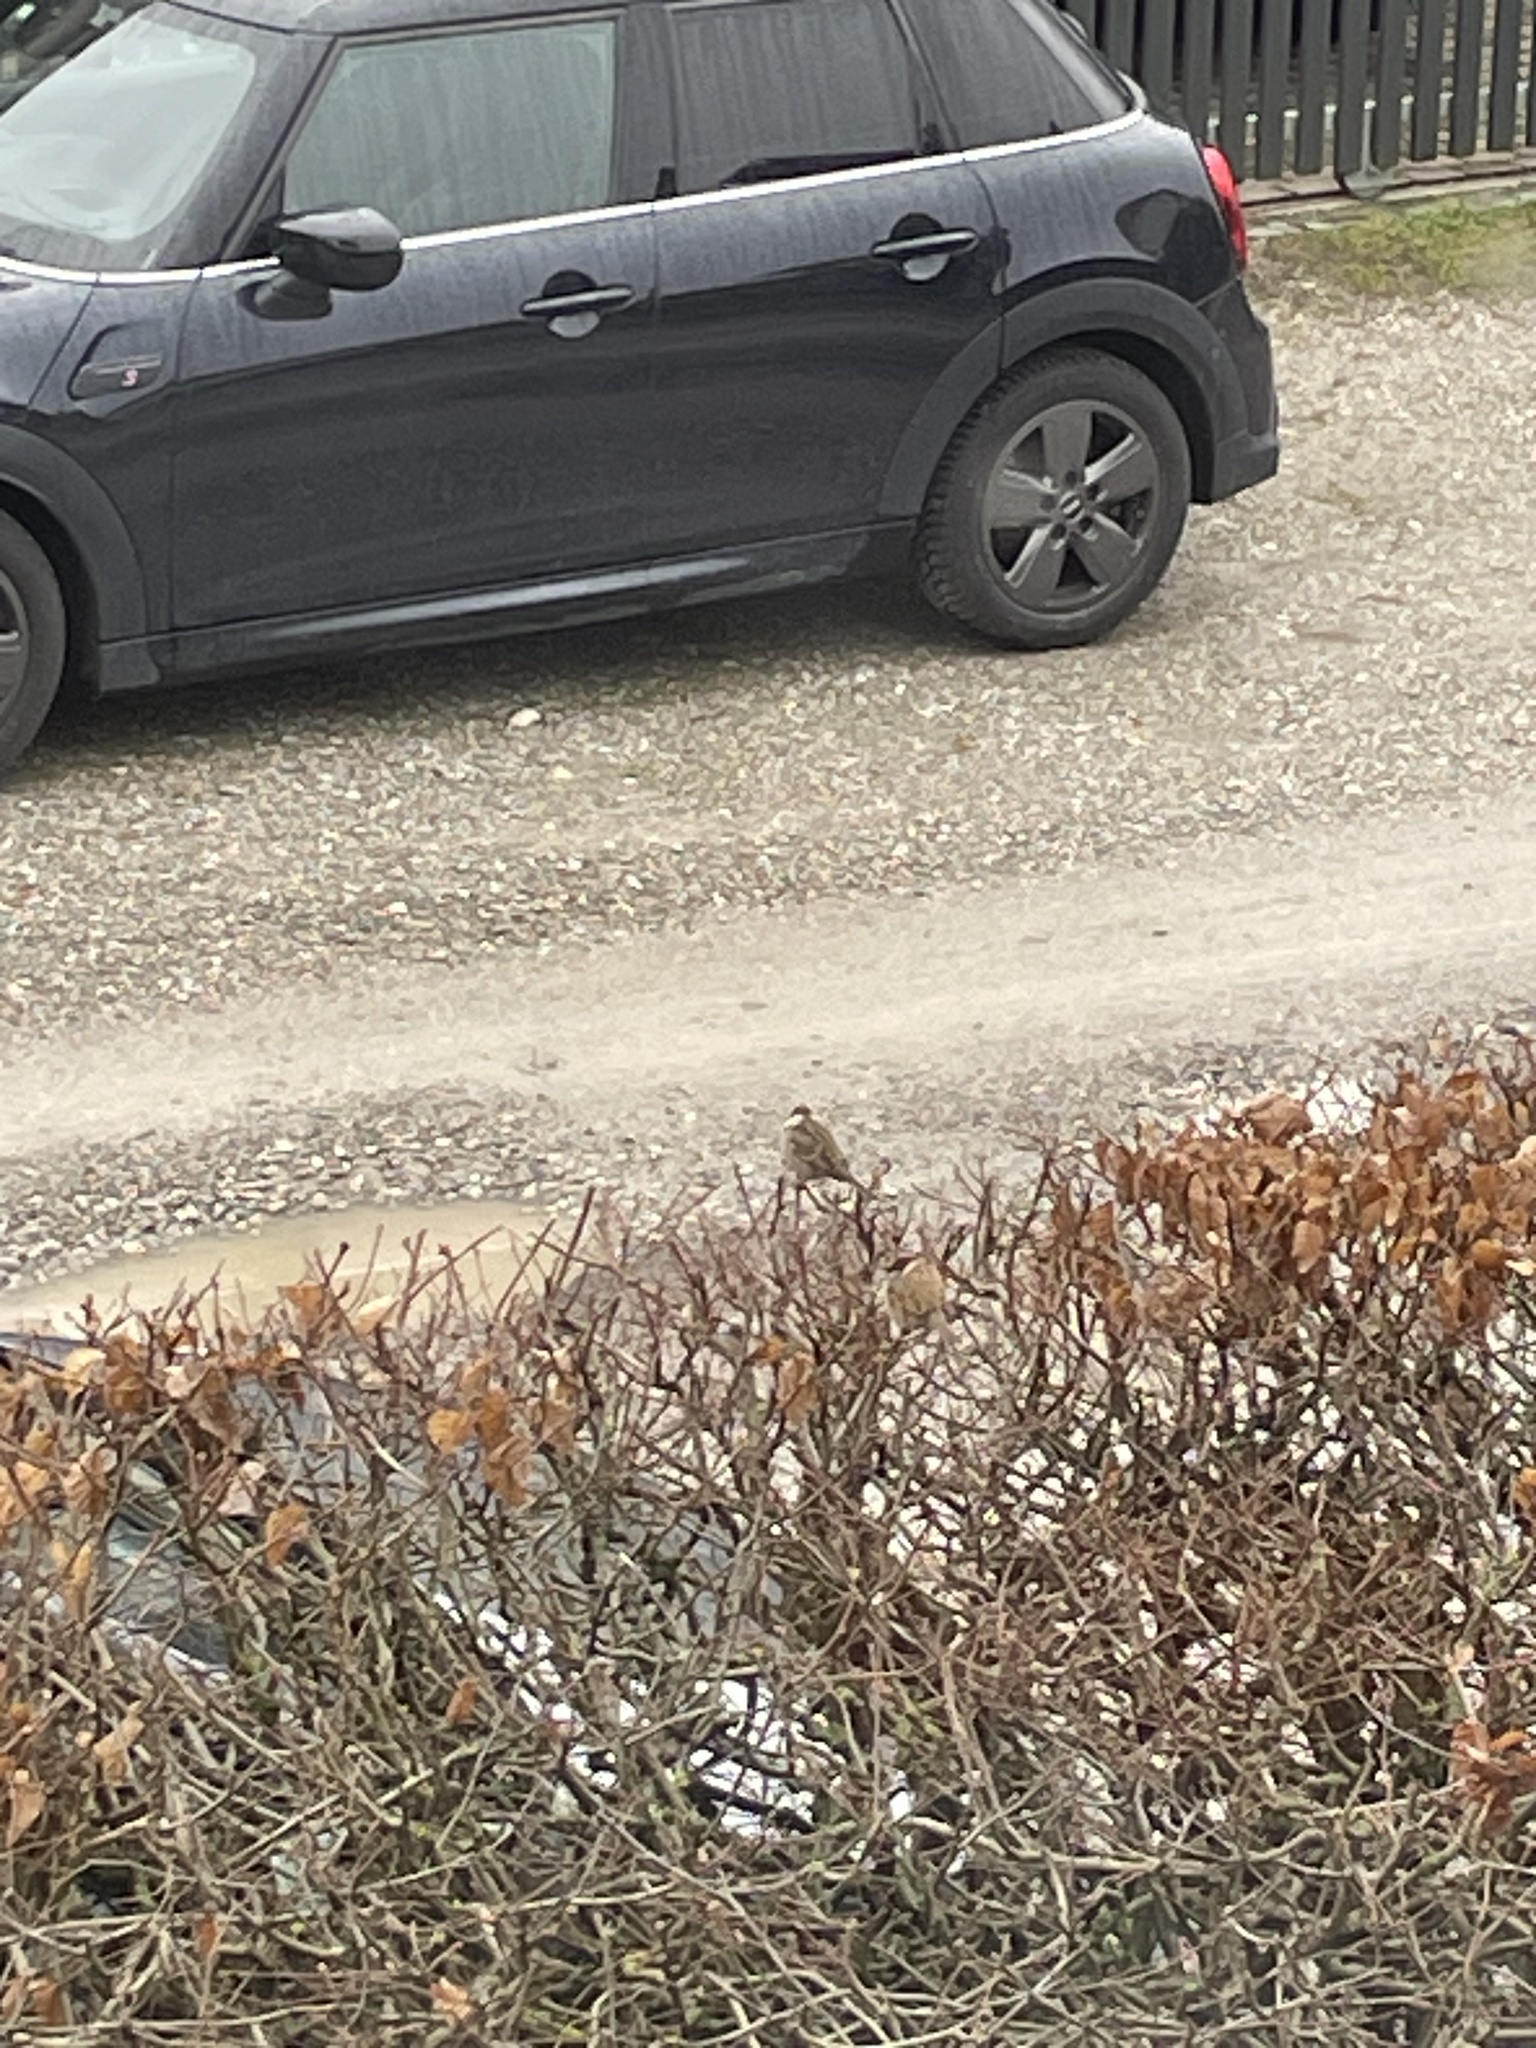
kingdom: Animalia
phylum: Chordata
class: Aves
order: Passeriformes
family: Passeridae
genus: Passer
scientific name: Passer domesticus
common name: House sparrow
